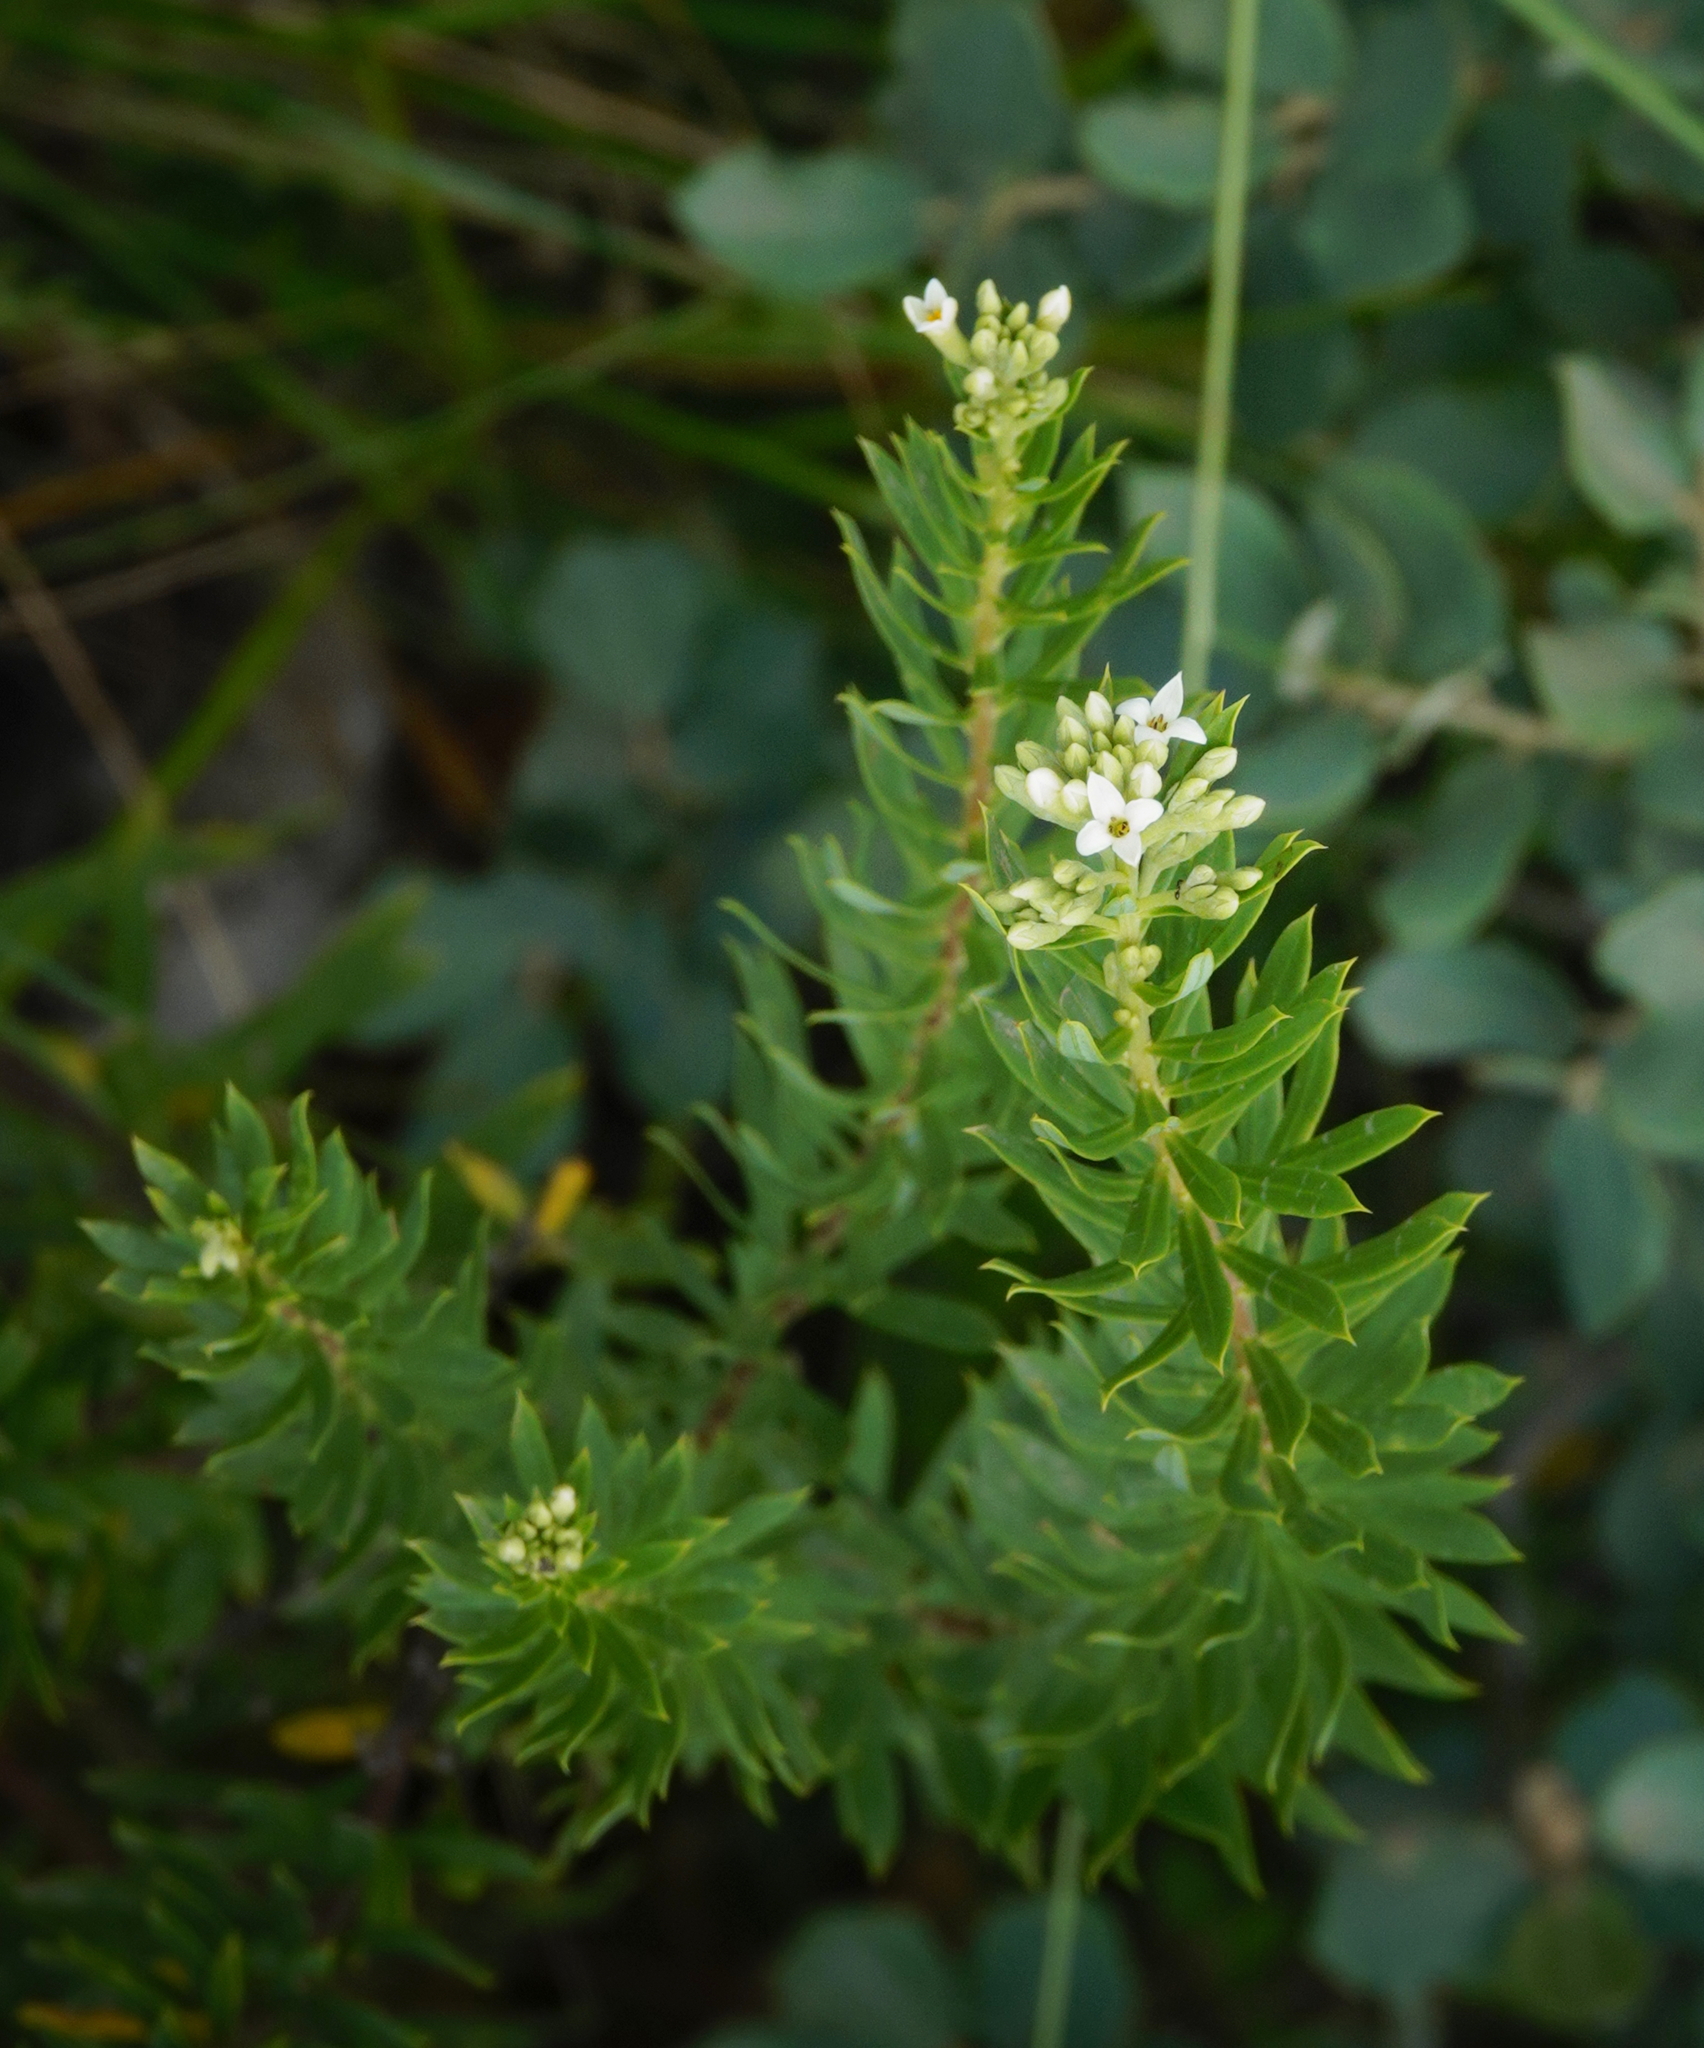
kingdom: Plantae
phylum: Tracheophyta
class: Magnoliopsida
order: Malvales
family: Thymelaeaceae
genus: Daphne
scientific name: Daphne gnidium
